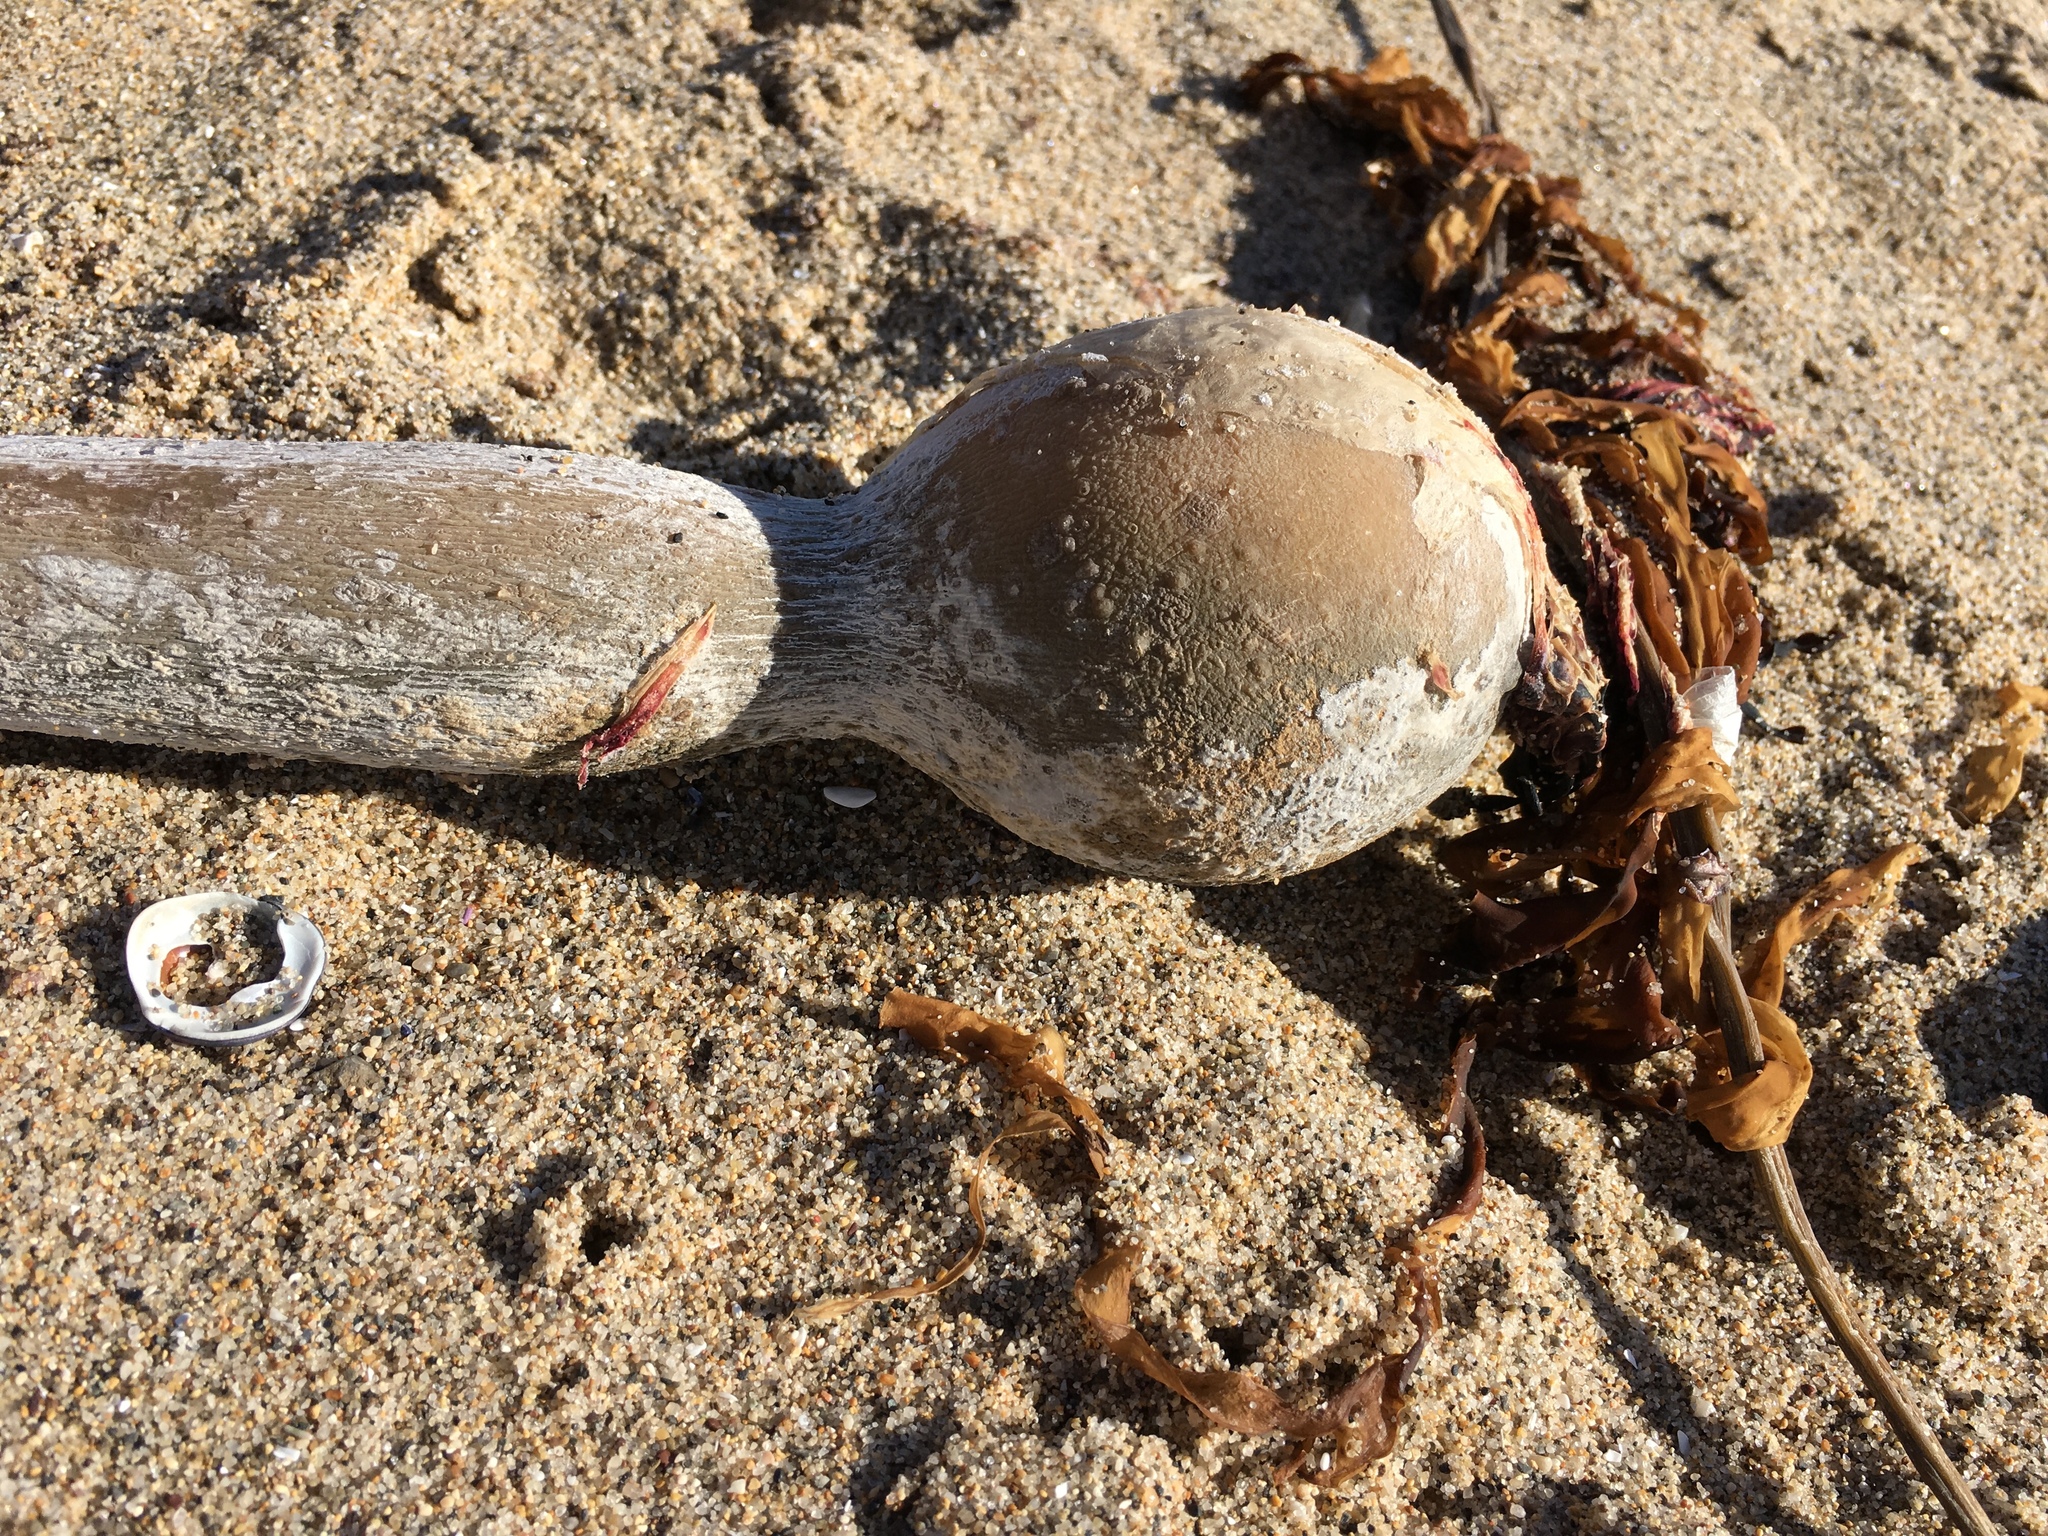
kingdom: Chromista
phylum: Ochrophyta
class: Phaeophyceae
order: Laminariales
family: Laminariaceae
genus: Nereocystis
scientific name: Nereocystis luetkeana
